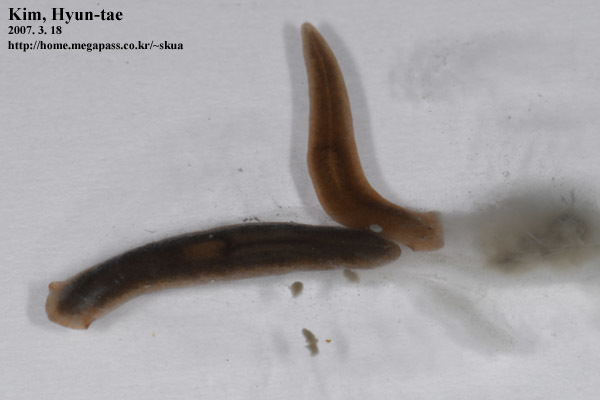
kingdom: Animalia
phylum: Platyhelminthes
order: Tricladida
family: Dugesiidae
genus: Dugesia
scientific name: Dugesia japonica
